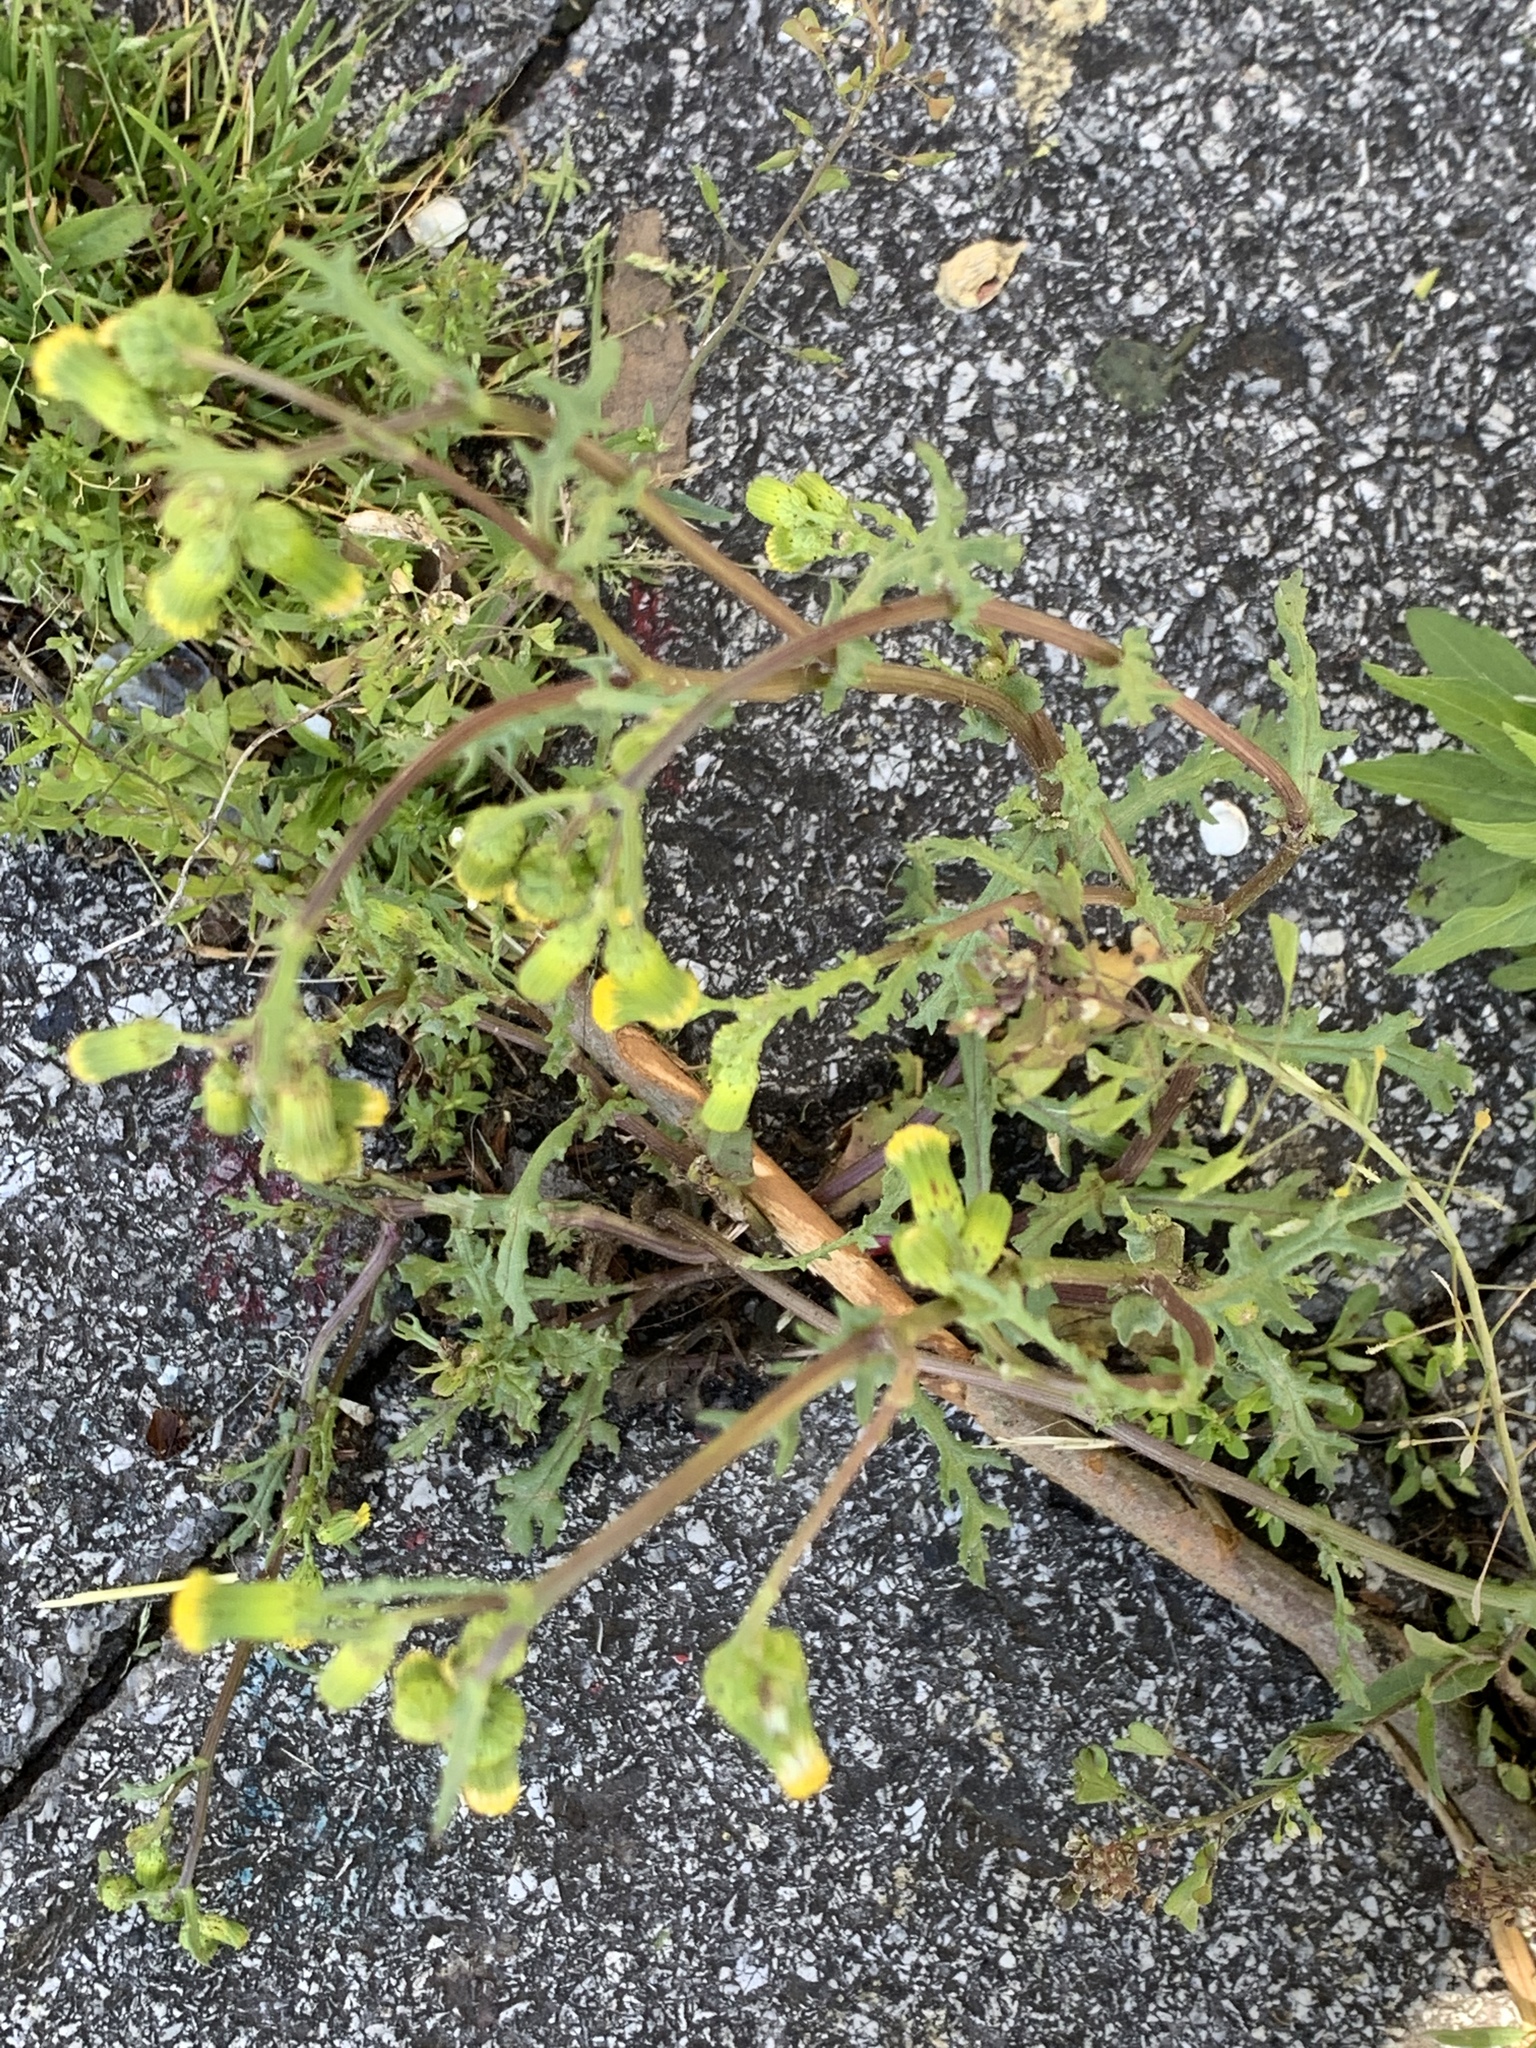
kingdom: Plantae
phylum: Tracheophyta
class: Magnoliopsida
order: Asterales
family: Asteraceae
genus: Senecio
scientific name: Senecio vulgaris
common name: Old-man-in-the-spring
